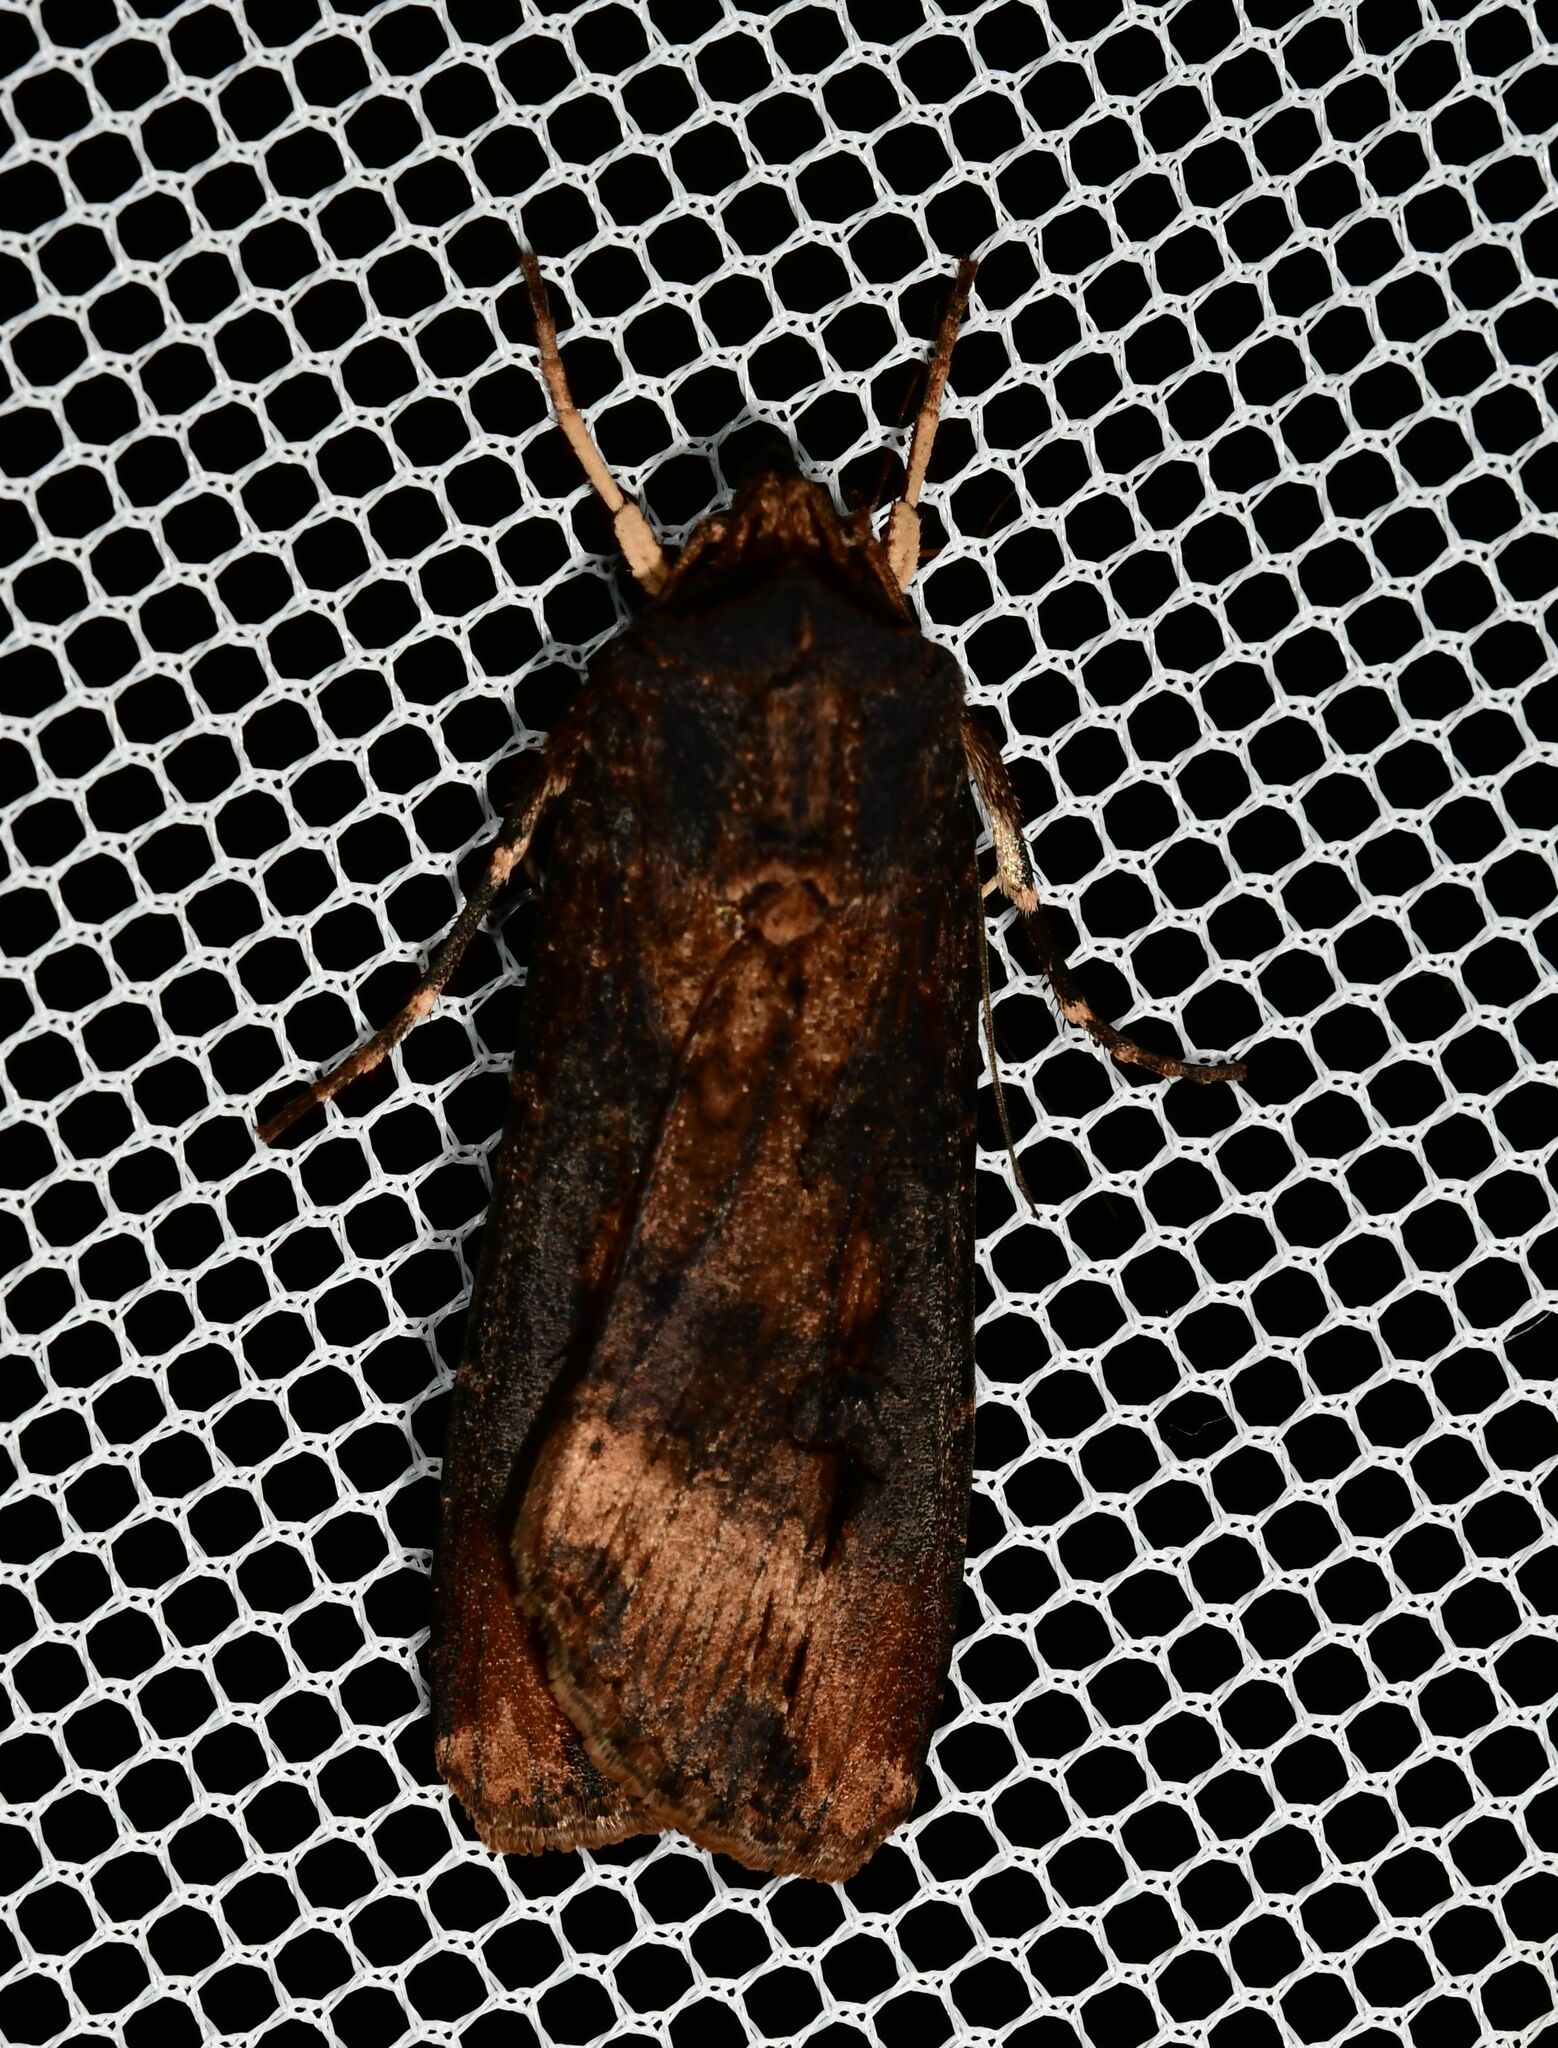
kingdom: Animalia
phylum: Arthropoda
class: Insecta
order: Lepidoptera
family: Noctuidae
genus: Agrotis
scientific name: Agrotis ipsilon
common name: Dark sword-grass
